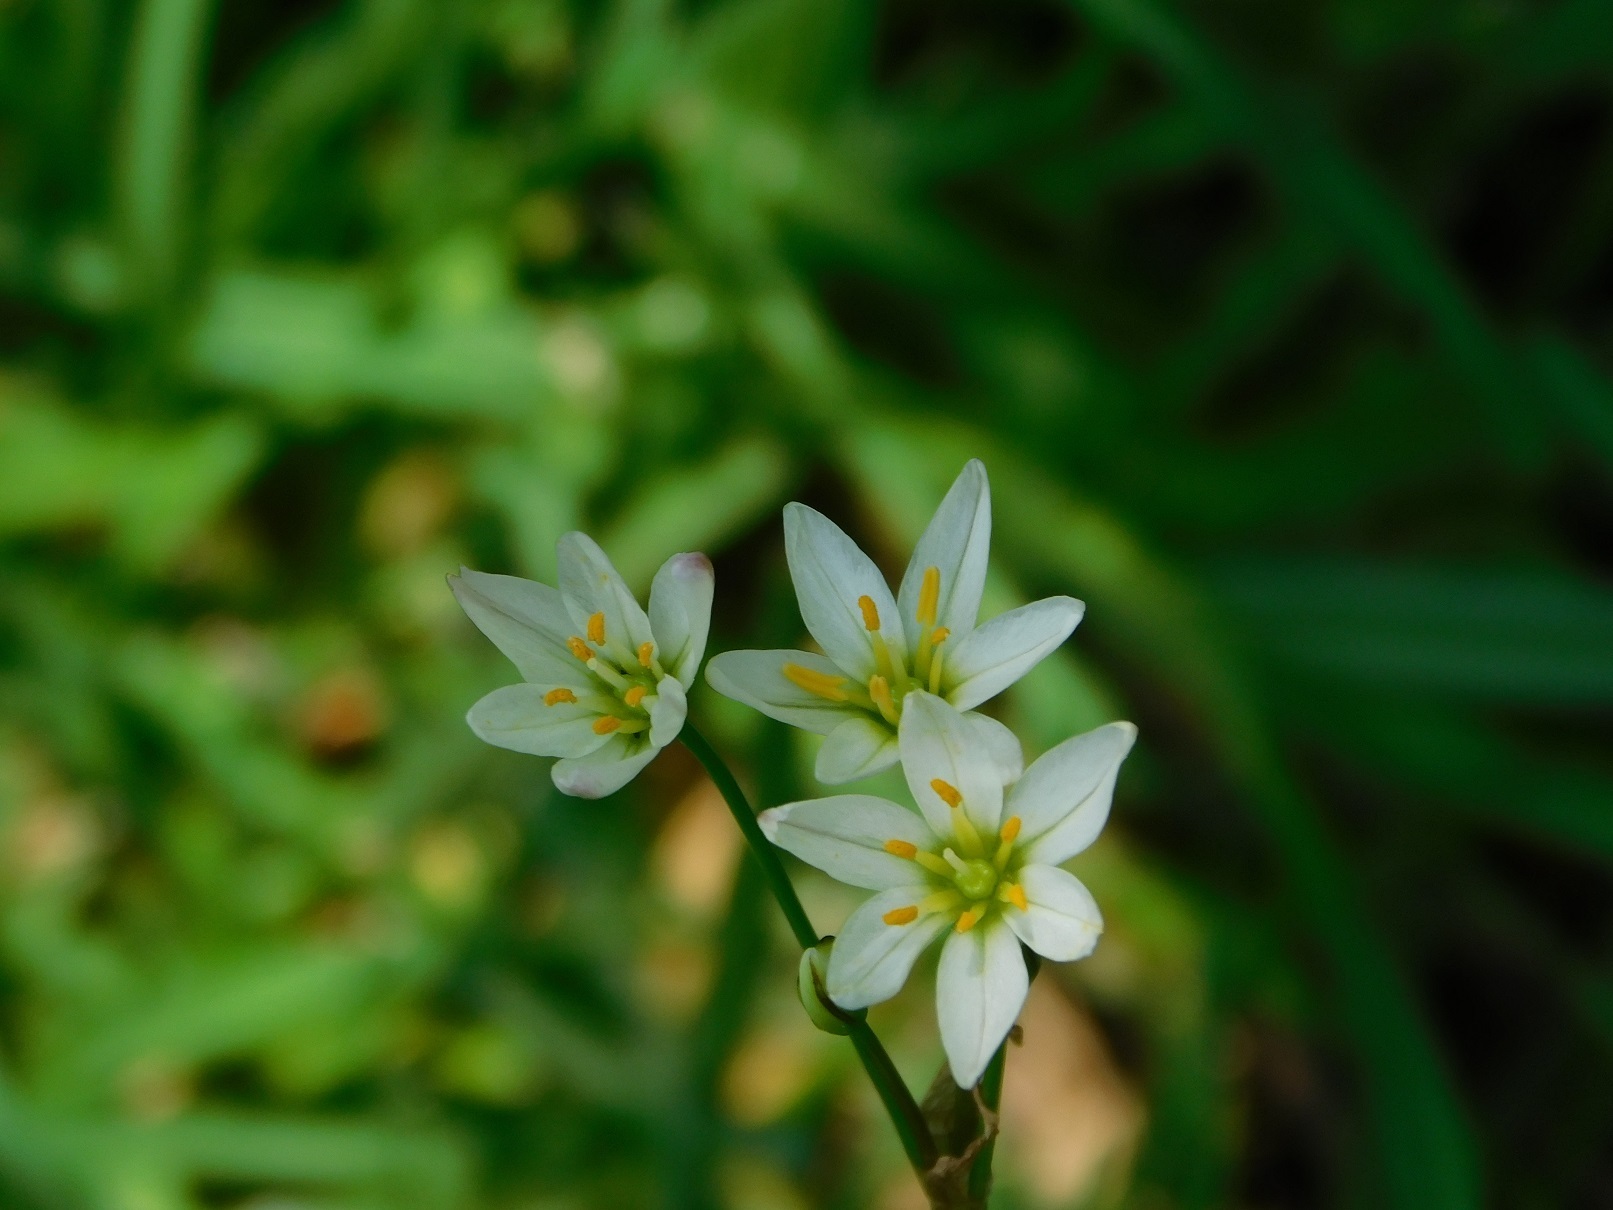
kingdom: Plantae
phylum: Tracheophyta
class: Liliopsida
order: Asparagales
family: Amaryllidaceae
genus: Nothoscordum
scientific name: Nothoscordum gracile
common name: Slender false garlic
